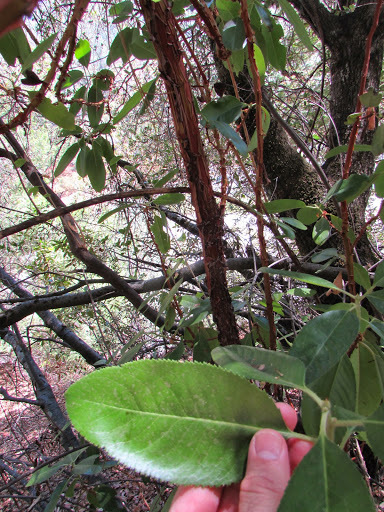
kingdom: Plantae
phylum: Tracheophyta
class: Magnoliopsida
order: Ericales
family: Ericaceae
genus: Arbutus
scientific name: Arbutus menziesii
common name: Pacific madrone
